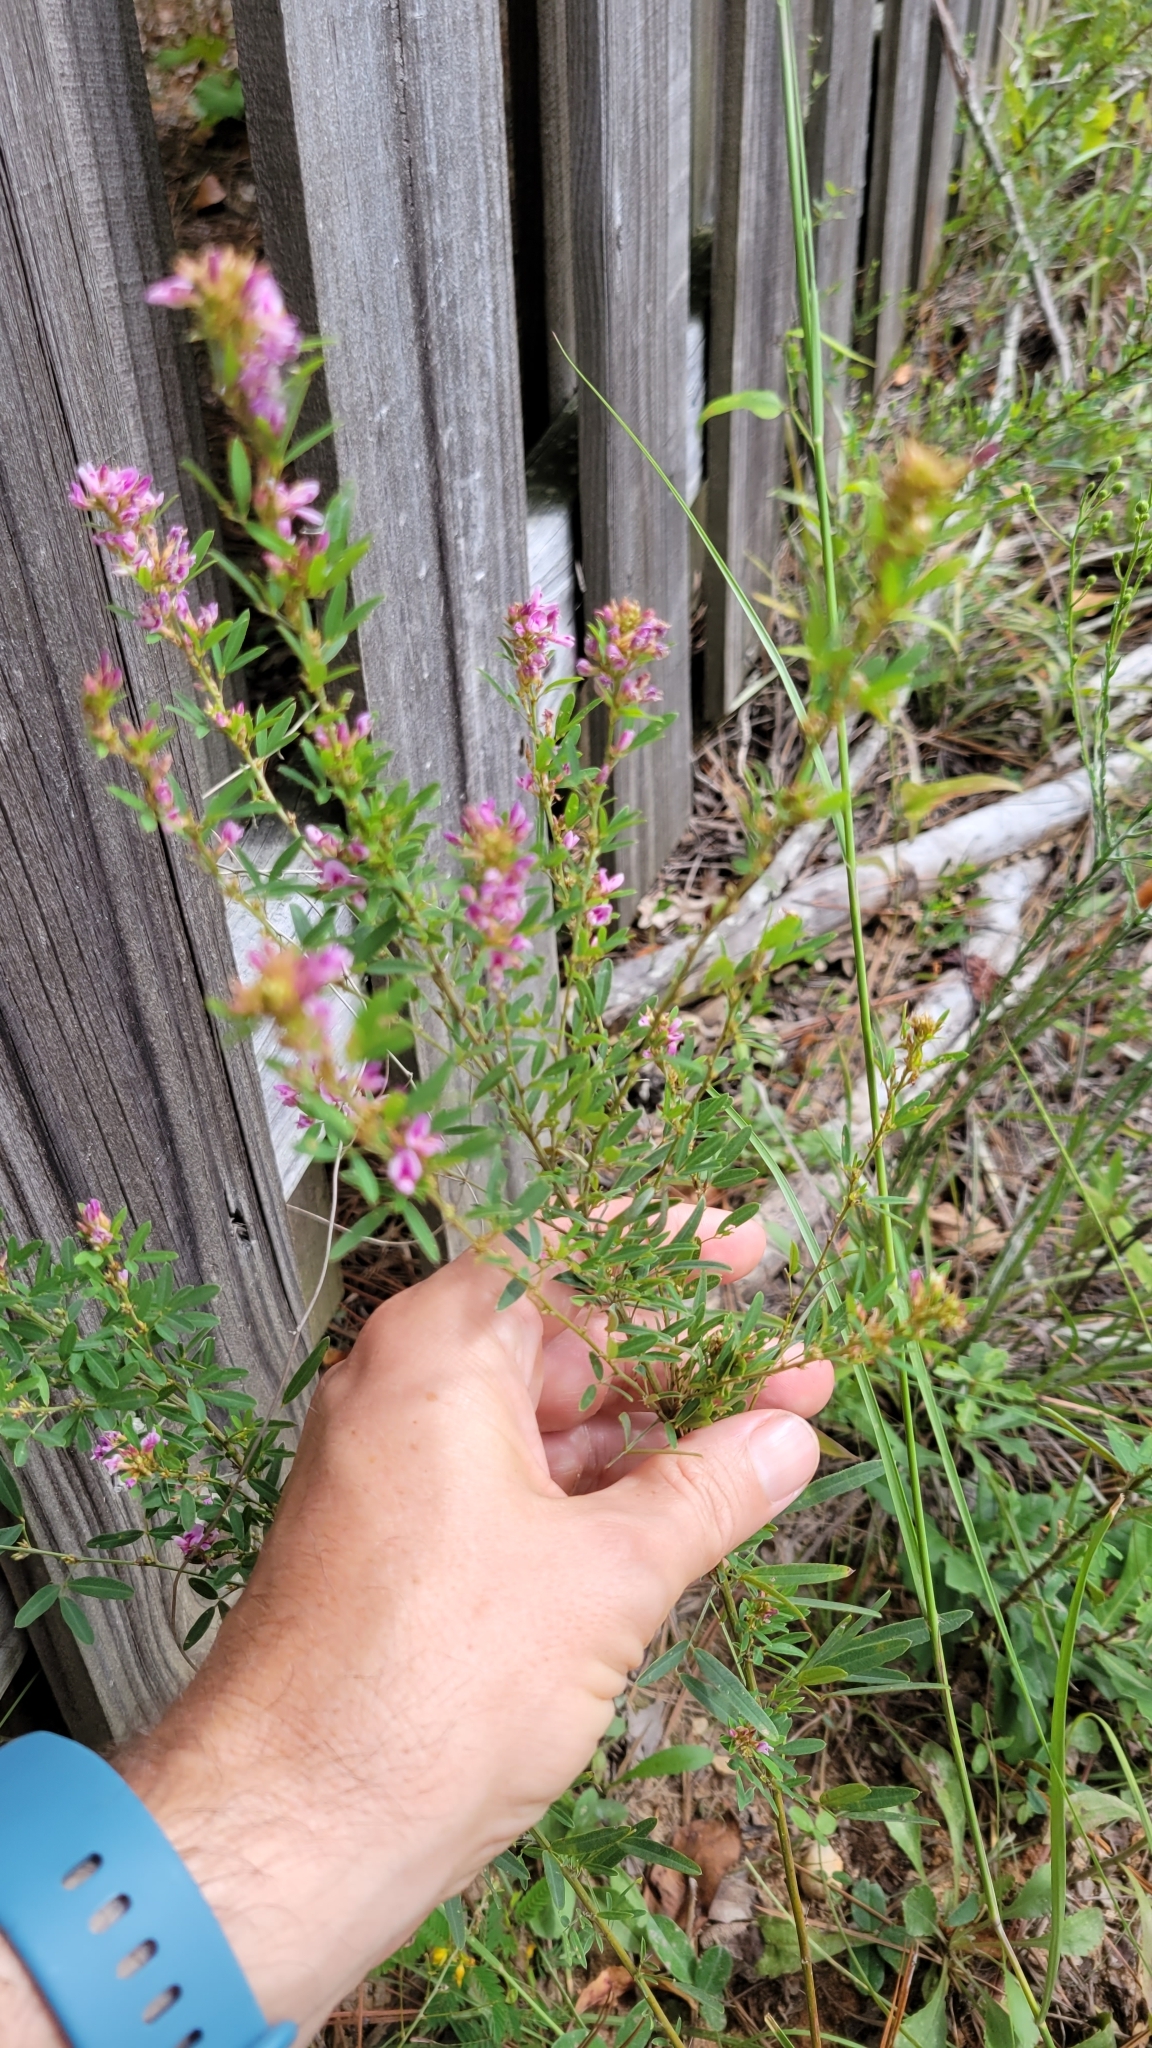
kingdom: Plantae
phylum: Tracheophyta
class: Magnoliopsida
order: Fabales
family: Fabaceae
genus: Lespedeza
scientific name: Lespedeza virginica
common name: Slender bush-clover
